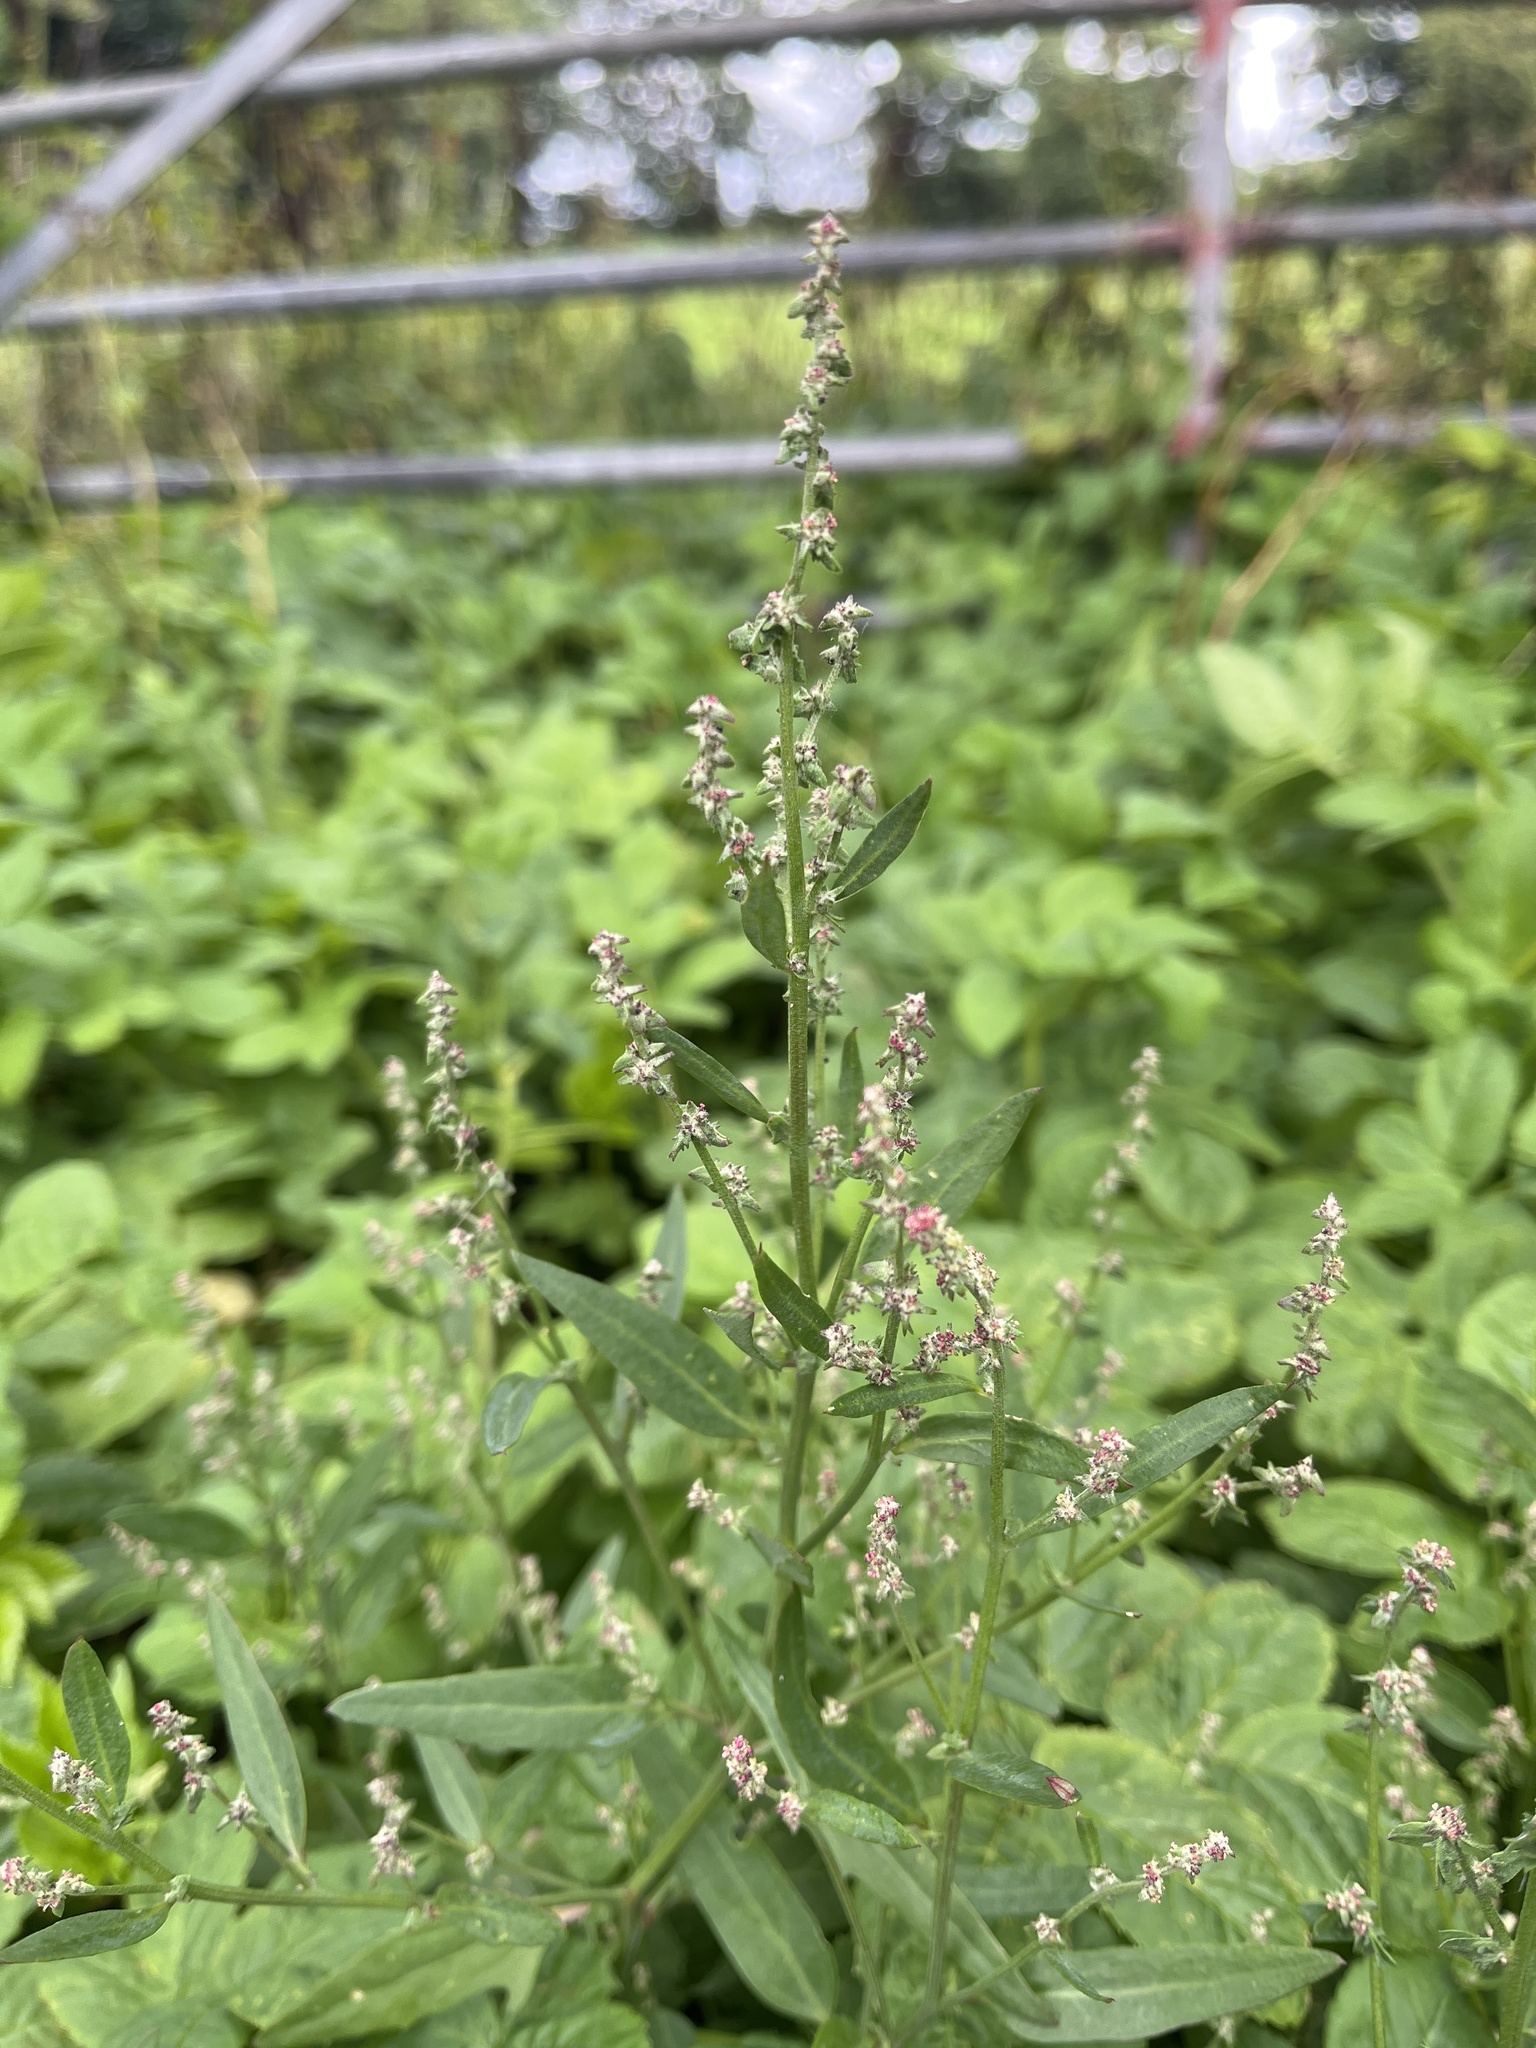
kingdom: Plantae
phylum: Tracheophyta
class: Magnoliopsida
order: Caryophyllales
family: Amaranthaceae
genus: Atriplex
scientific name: Atriplex patula
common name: Common orache
